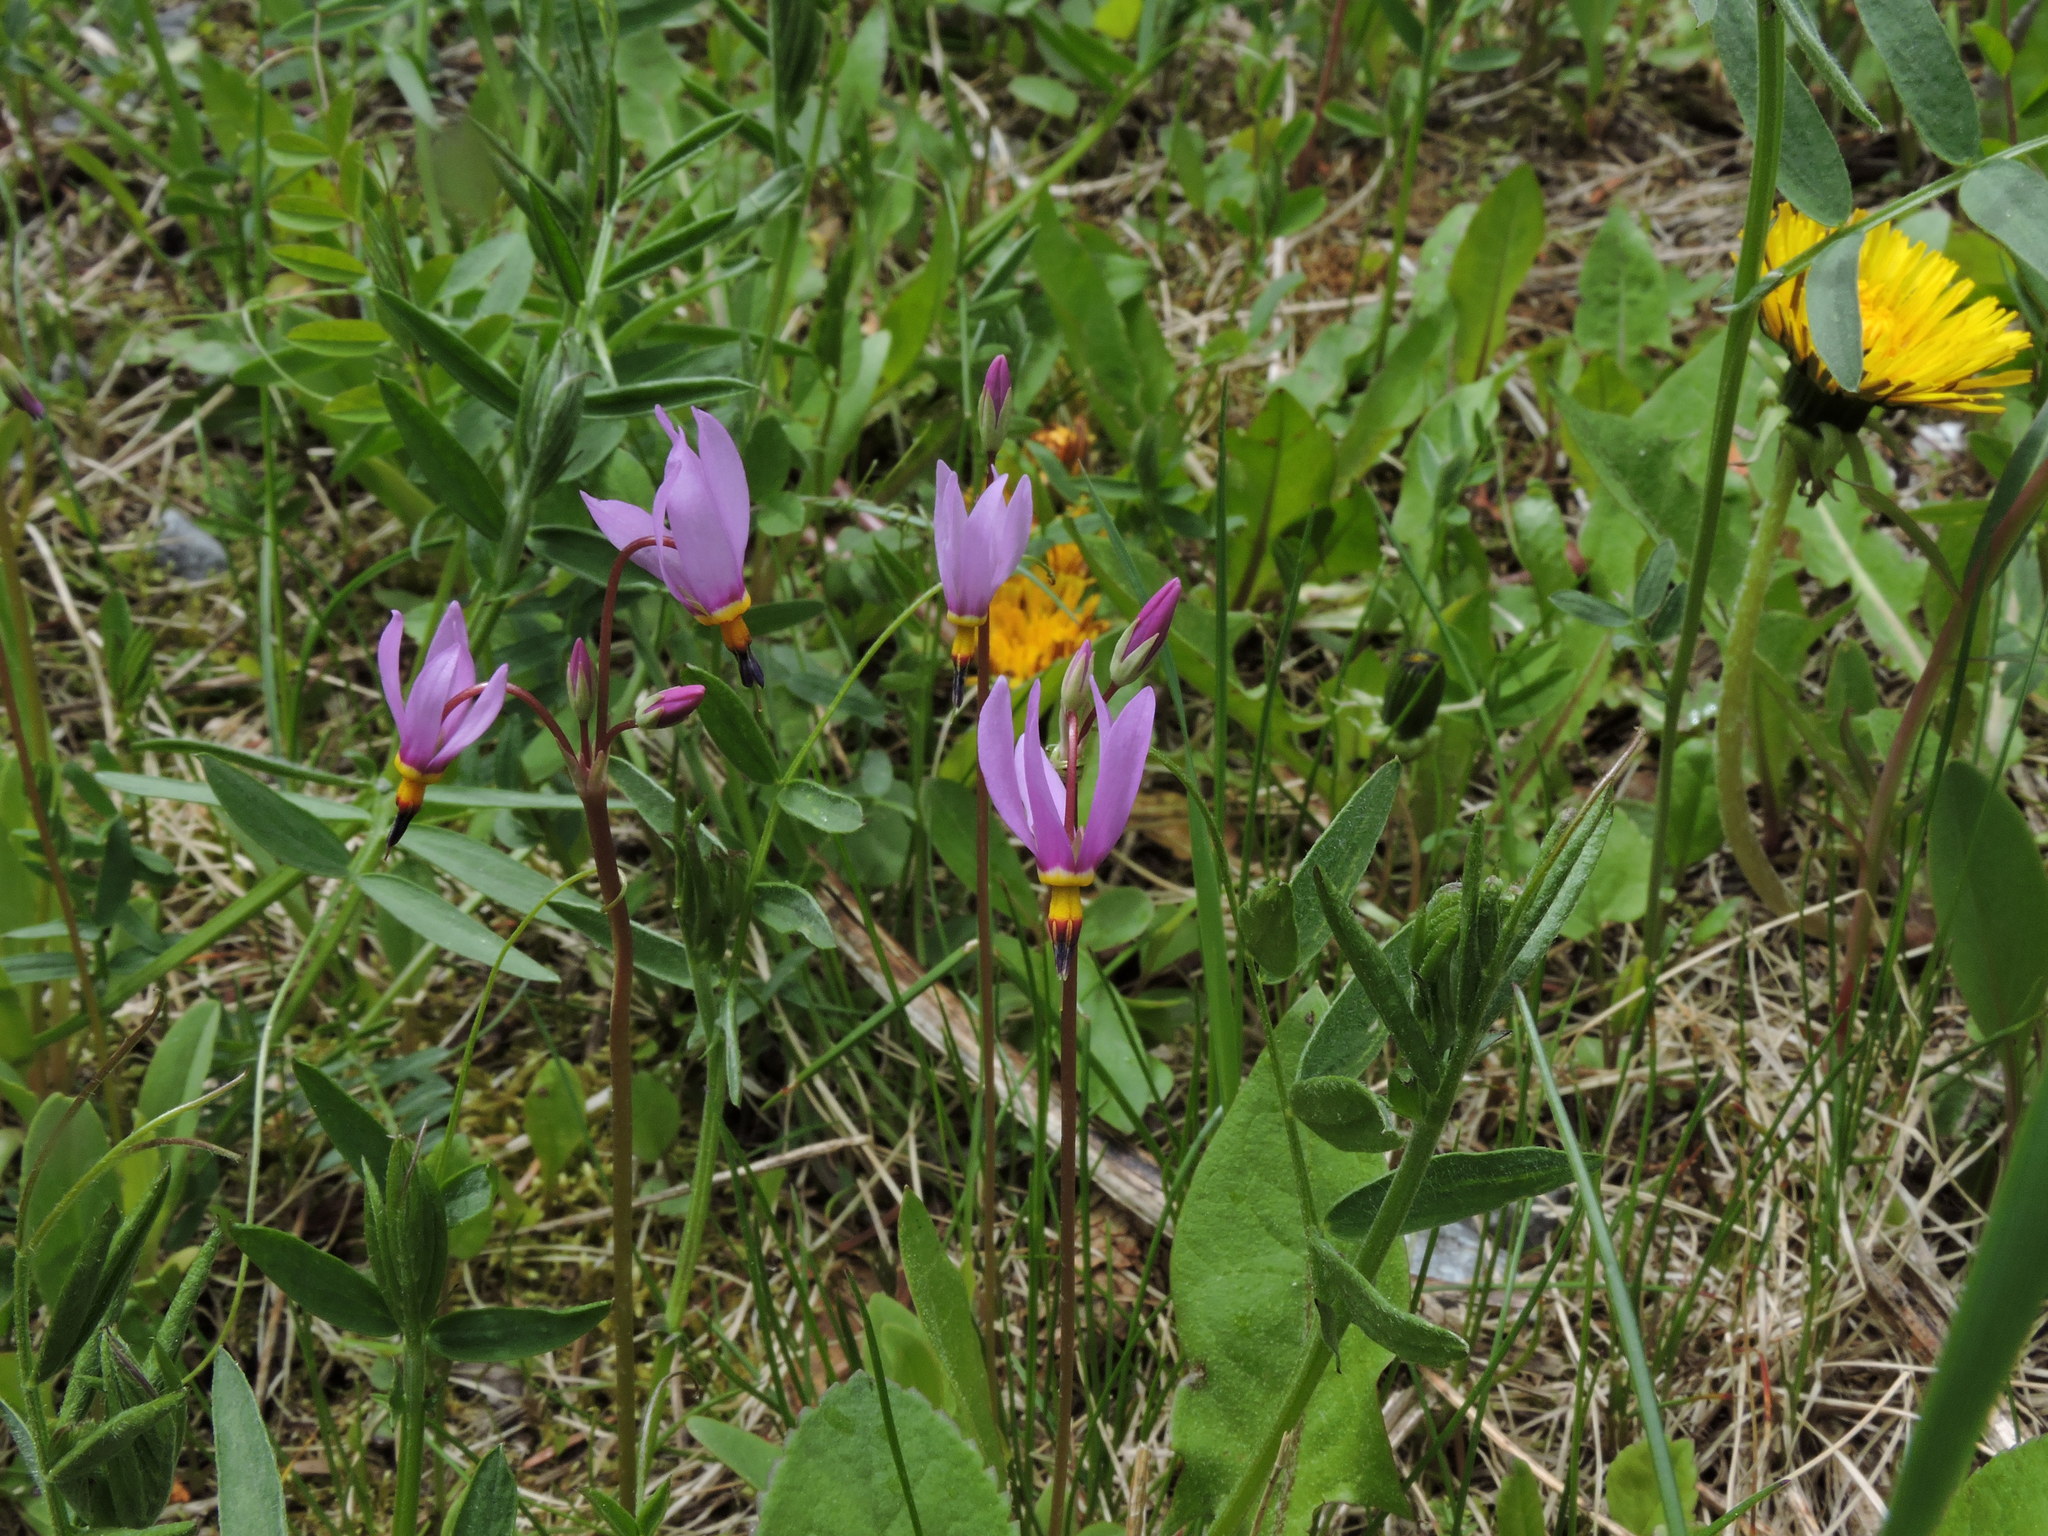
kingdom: Plantae
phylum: Tracheophyta
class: Magnoliopsida
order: Ericales
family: Primulaceae
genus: Dodecatheon
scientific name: Dodecatheon pulchellum
